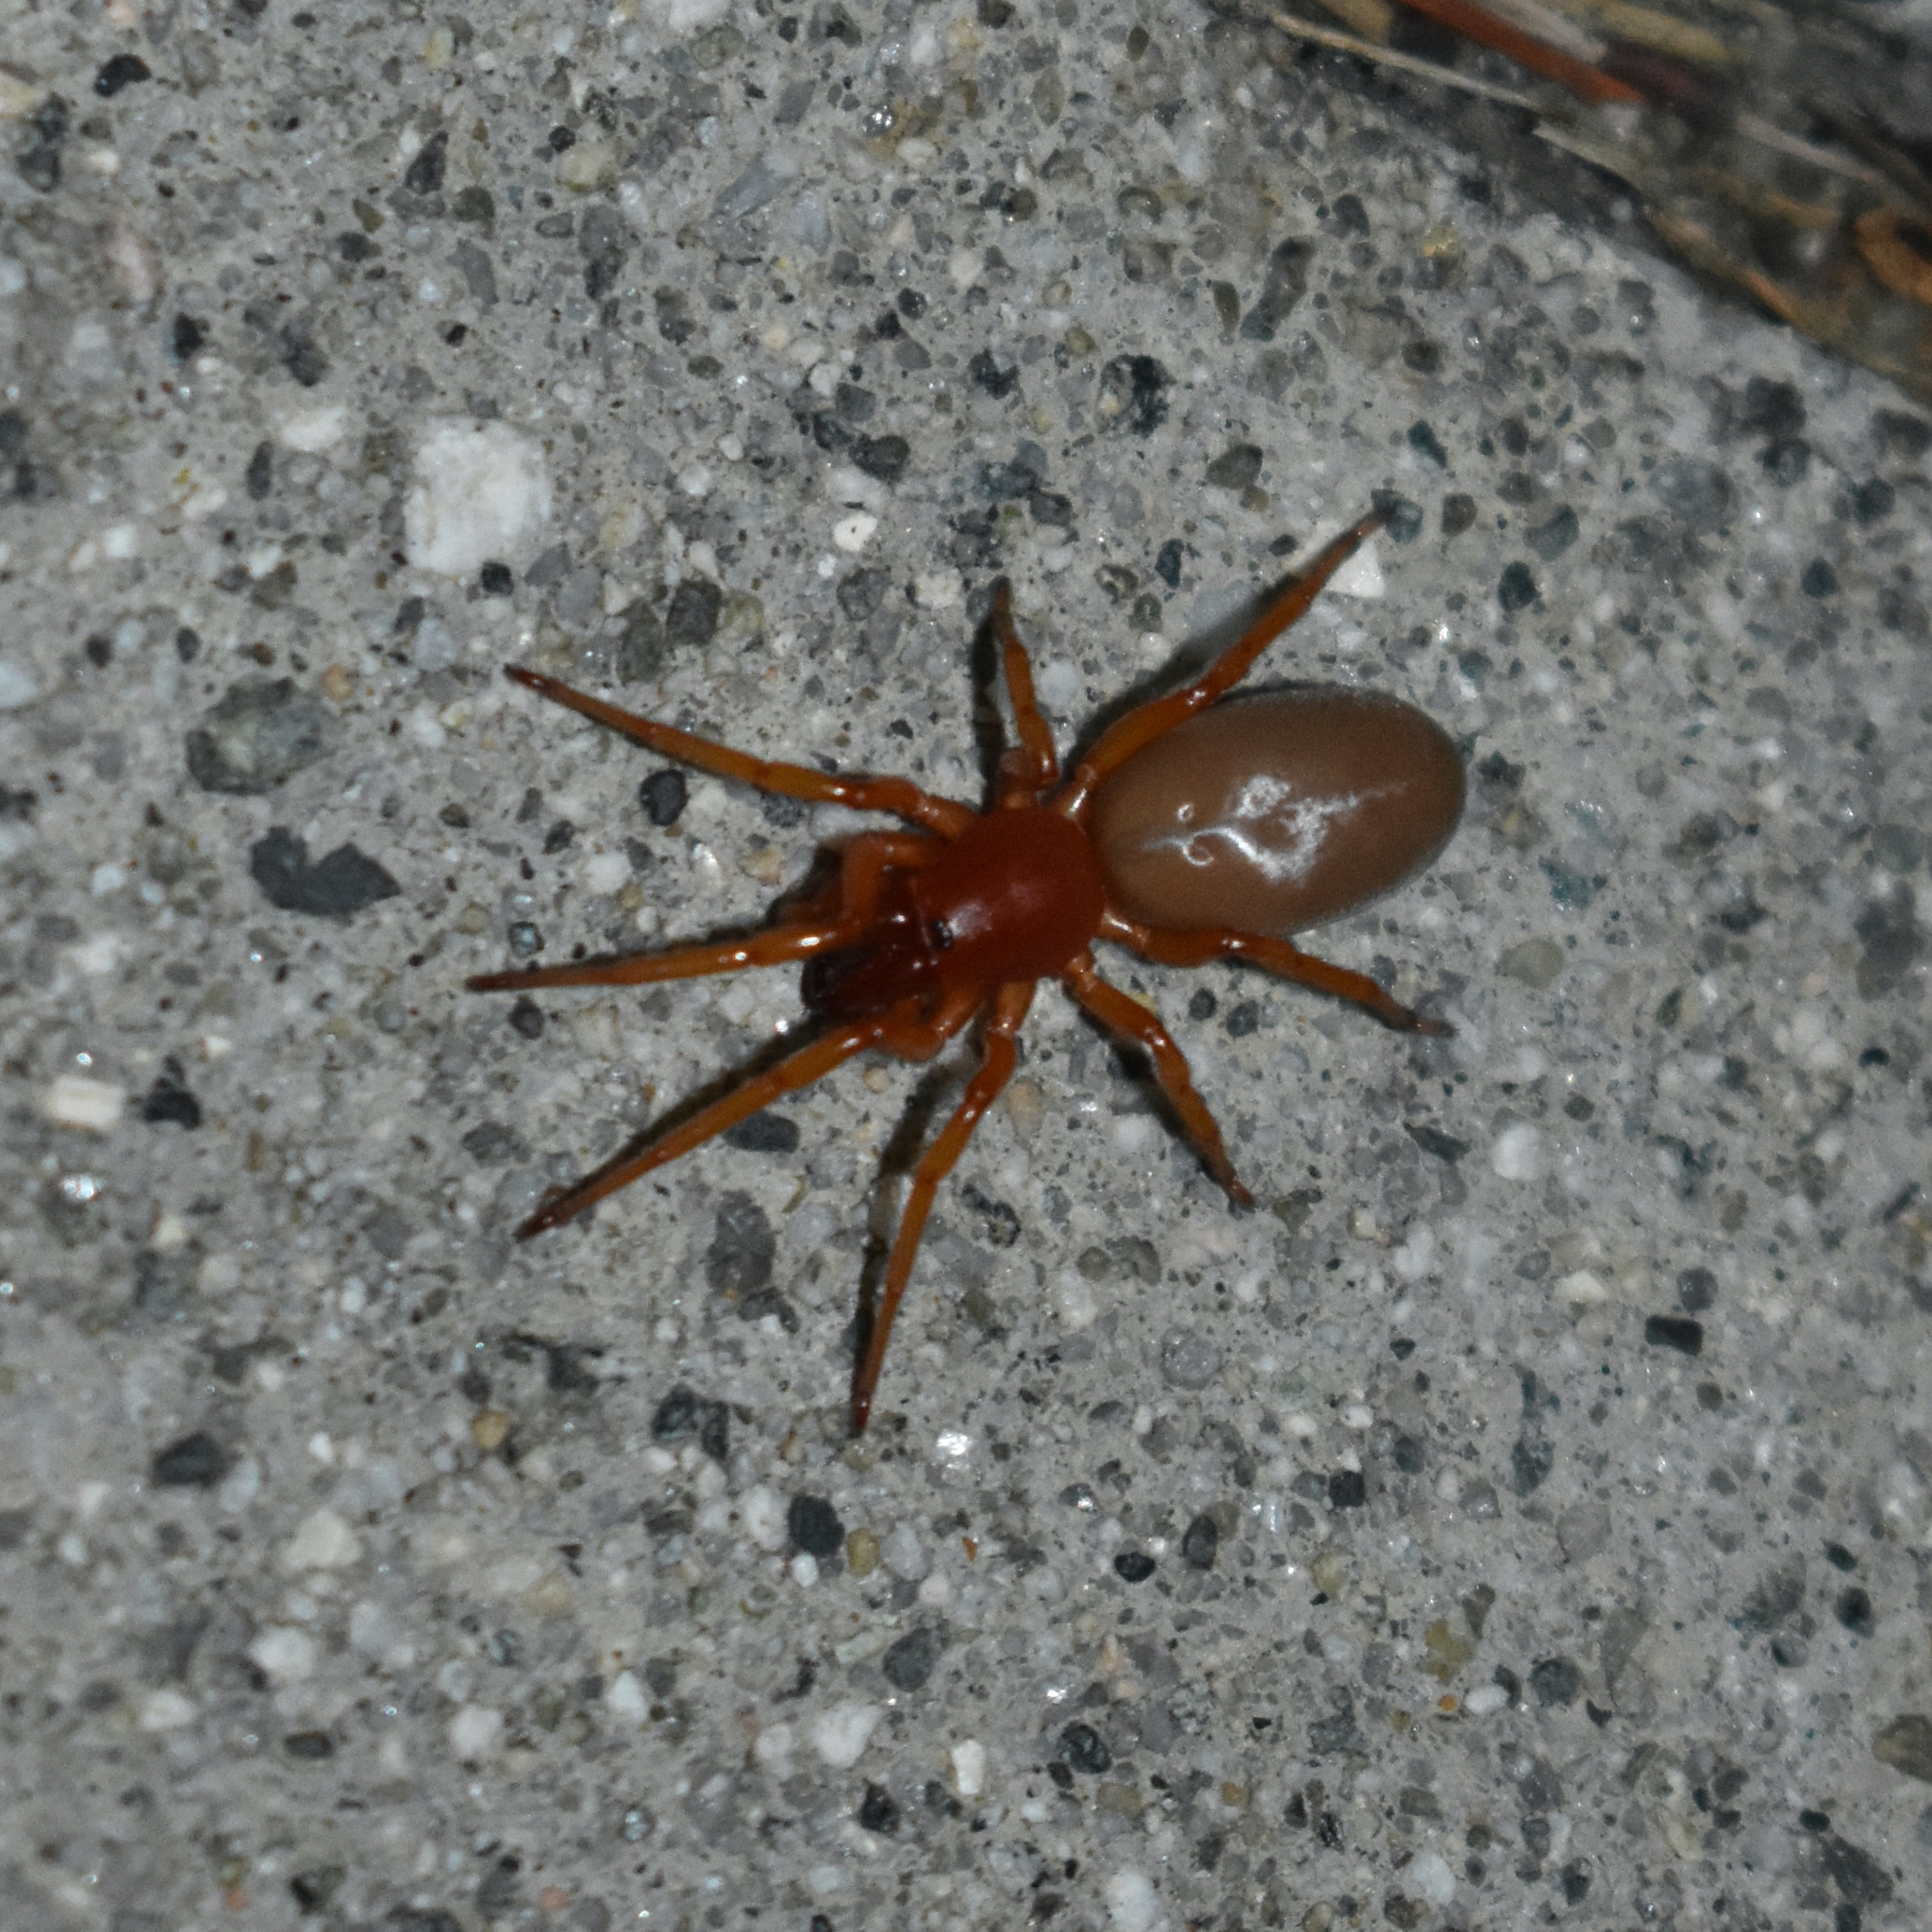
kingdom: Animalia
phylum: Arthropoda
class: Arachnida
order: Araneae
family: Dysderidae
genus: Dysdera
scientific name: Dysdera crocata
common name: Woodlouse spider
